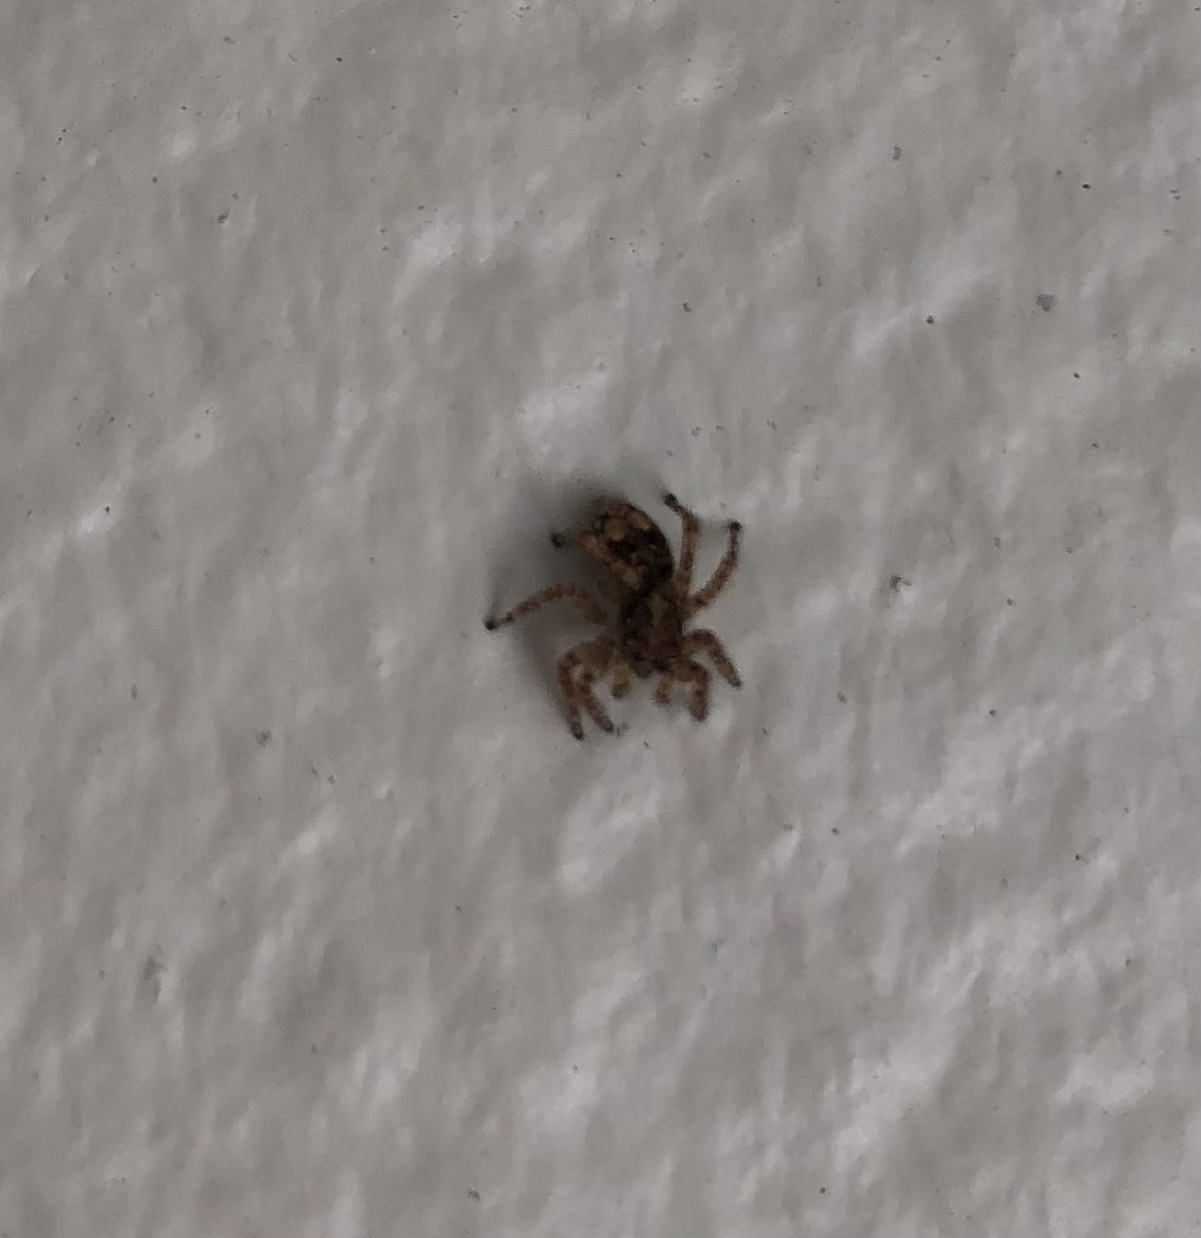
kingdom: Animalia
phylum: Arthropoda
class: Arachnida
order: Araneae
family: Salticidae
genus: Attulus
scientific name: Attulus fasciger
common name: Asiatic wall jumping spider
